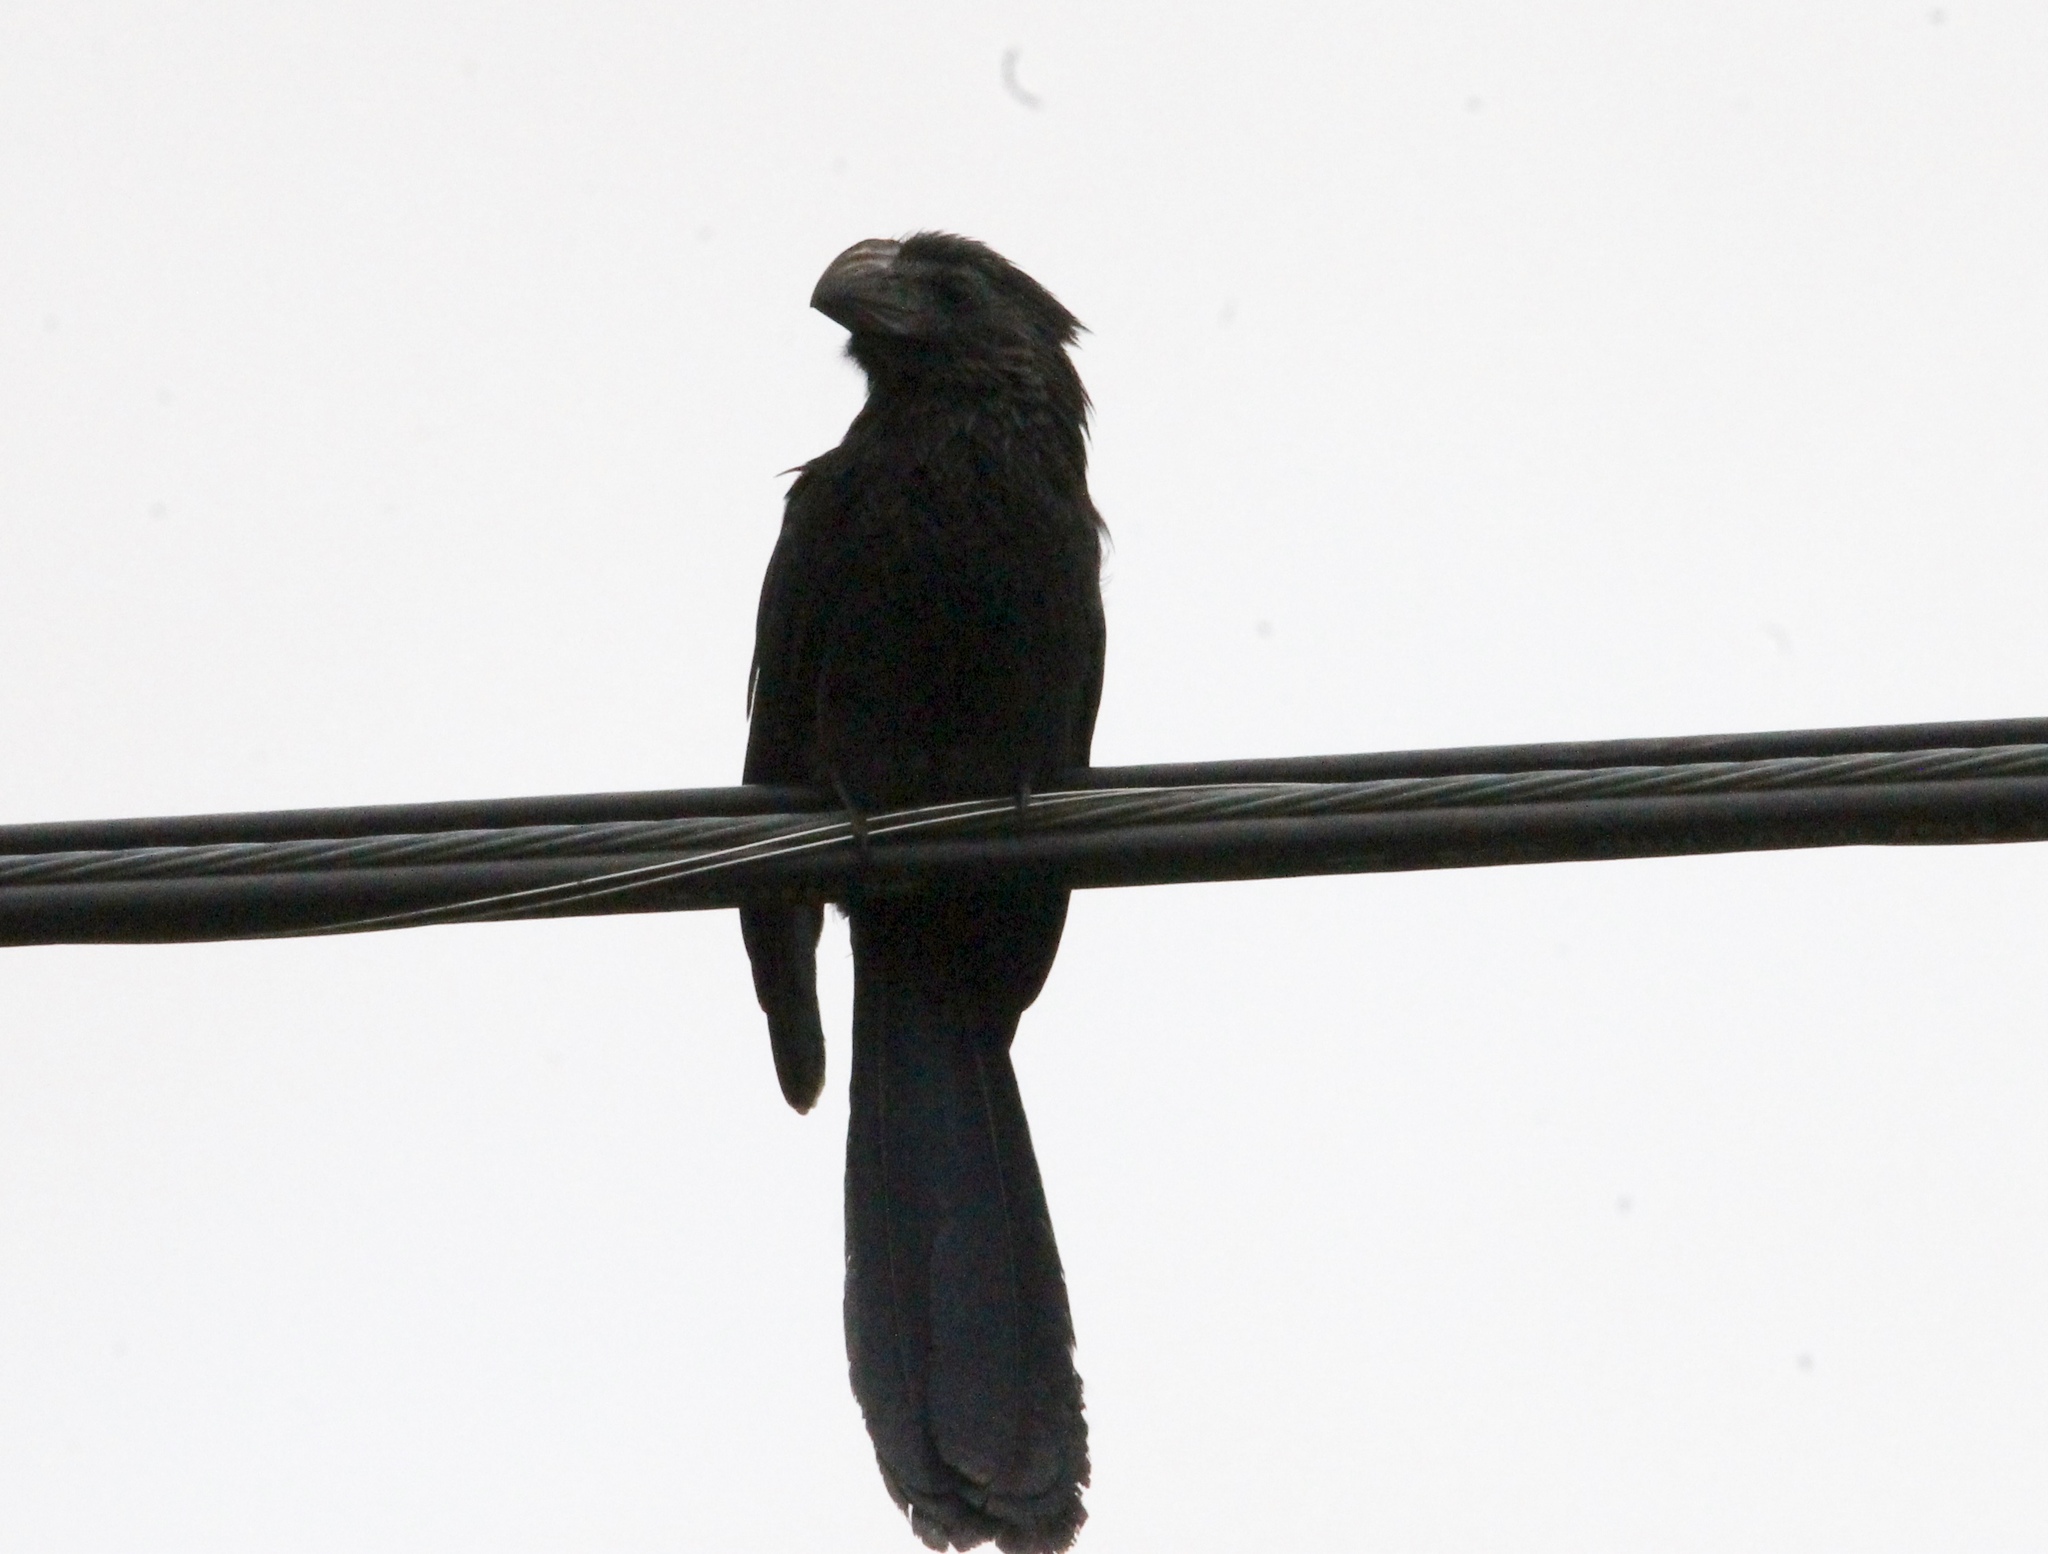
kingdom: Animalia
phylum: Chordata
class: Aves
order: Cuculiformes
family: Cuculidae
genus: Crotophaga
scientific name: Crotophaga sulcirostris
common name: Groove-billed ani
